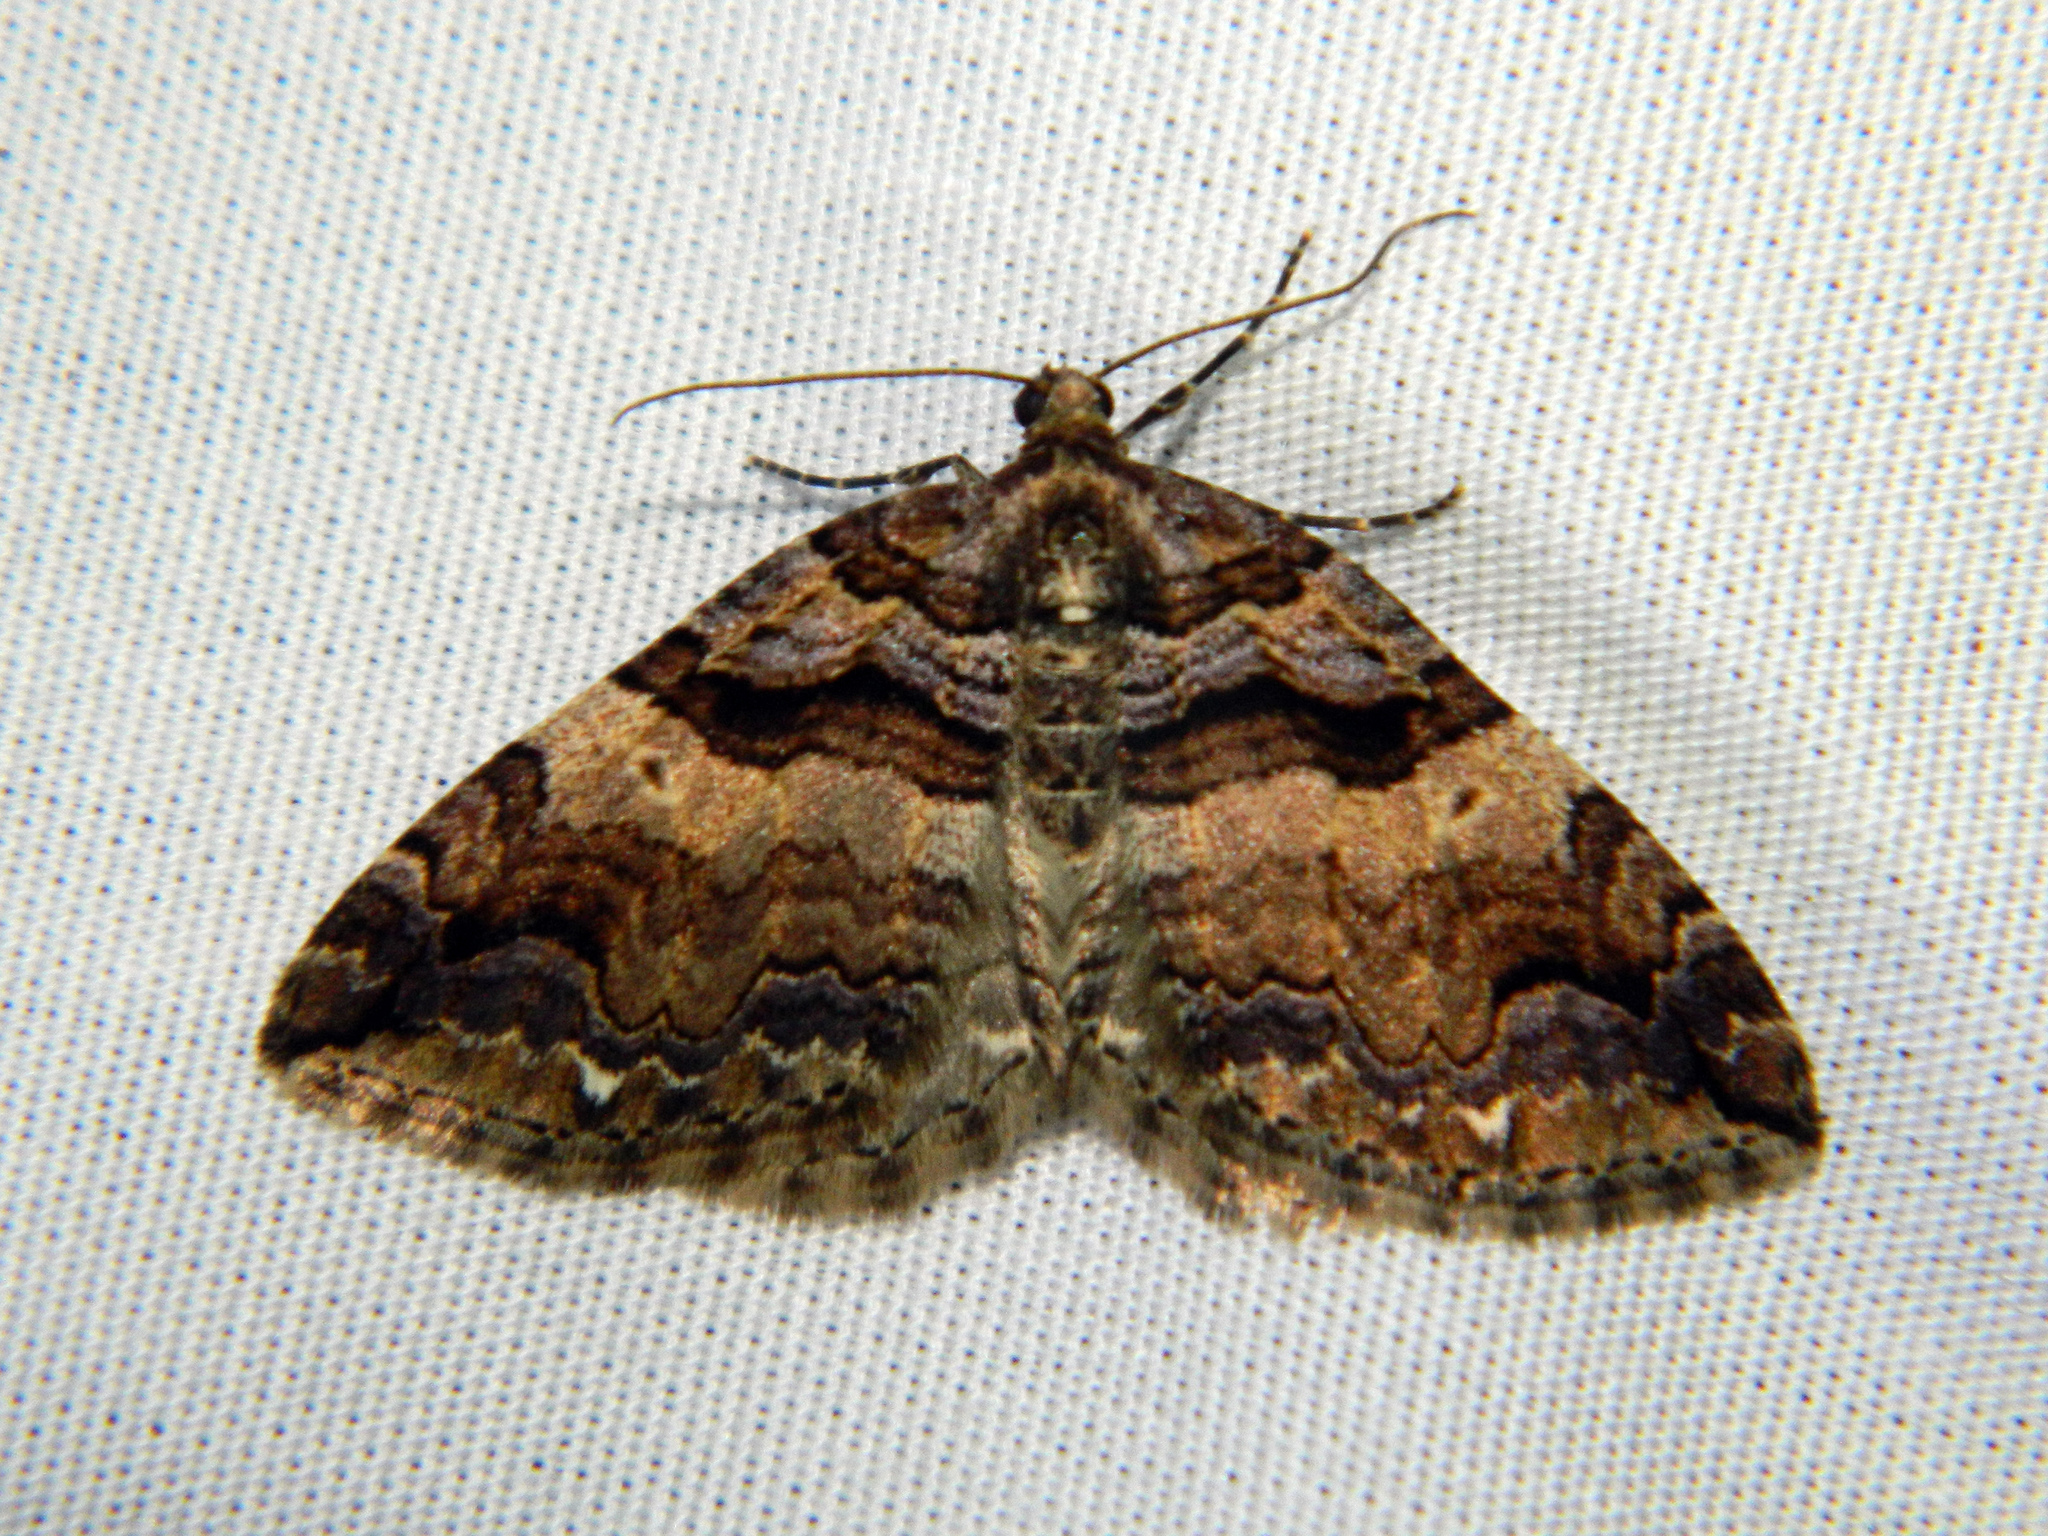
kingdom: Animalia
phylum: Arthropoda
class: Insecta
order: Lepidoptera
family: Geometridae
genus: Anticlea
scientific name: Anticlea vasiliata
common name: Variable carpet
